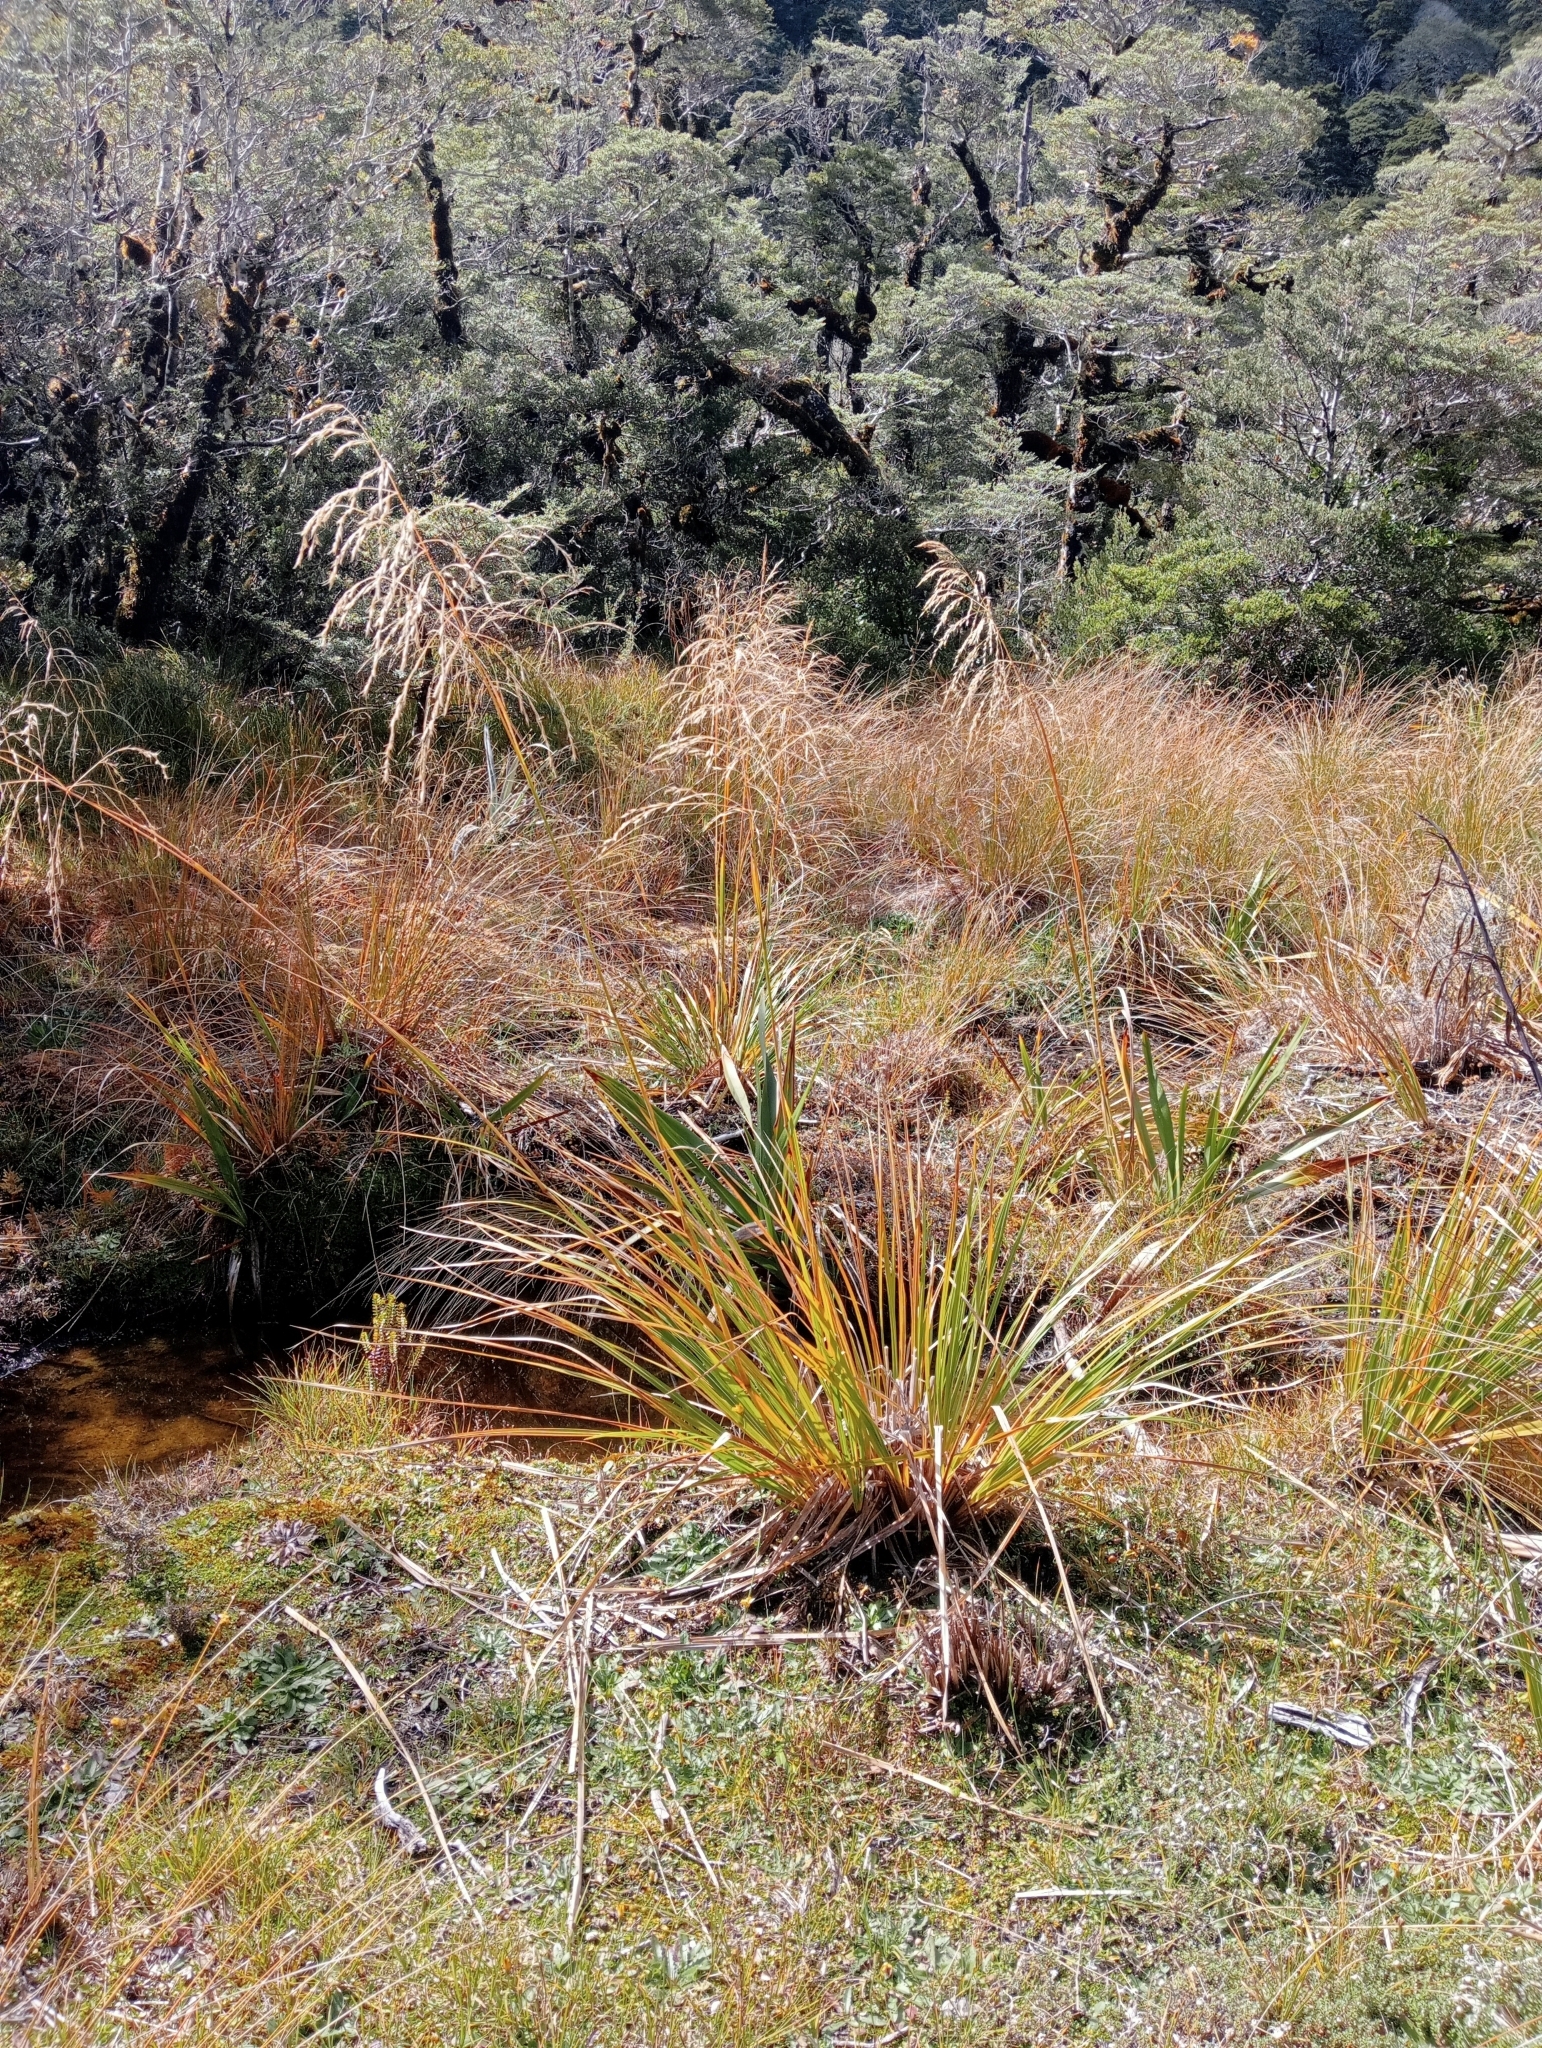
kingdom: Plantae
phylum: Tracheophyta
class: Liliopsida
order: Poales
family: Poaceae
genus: Chionochloa
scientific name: Chionochloa conspicua
